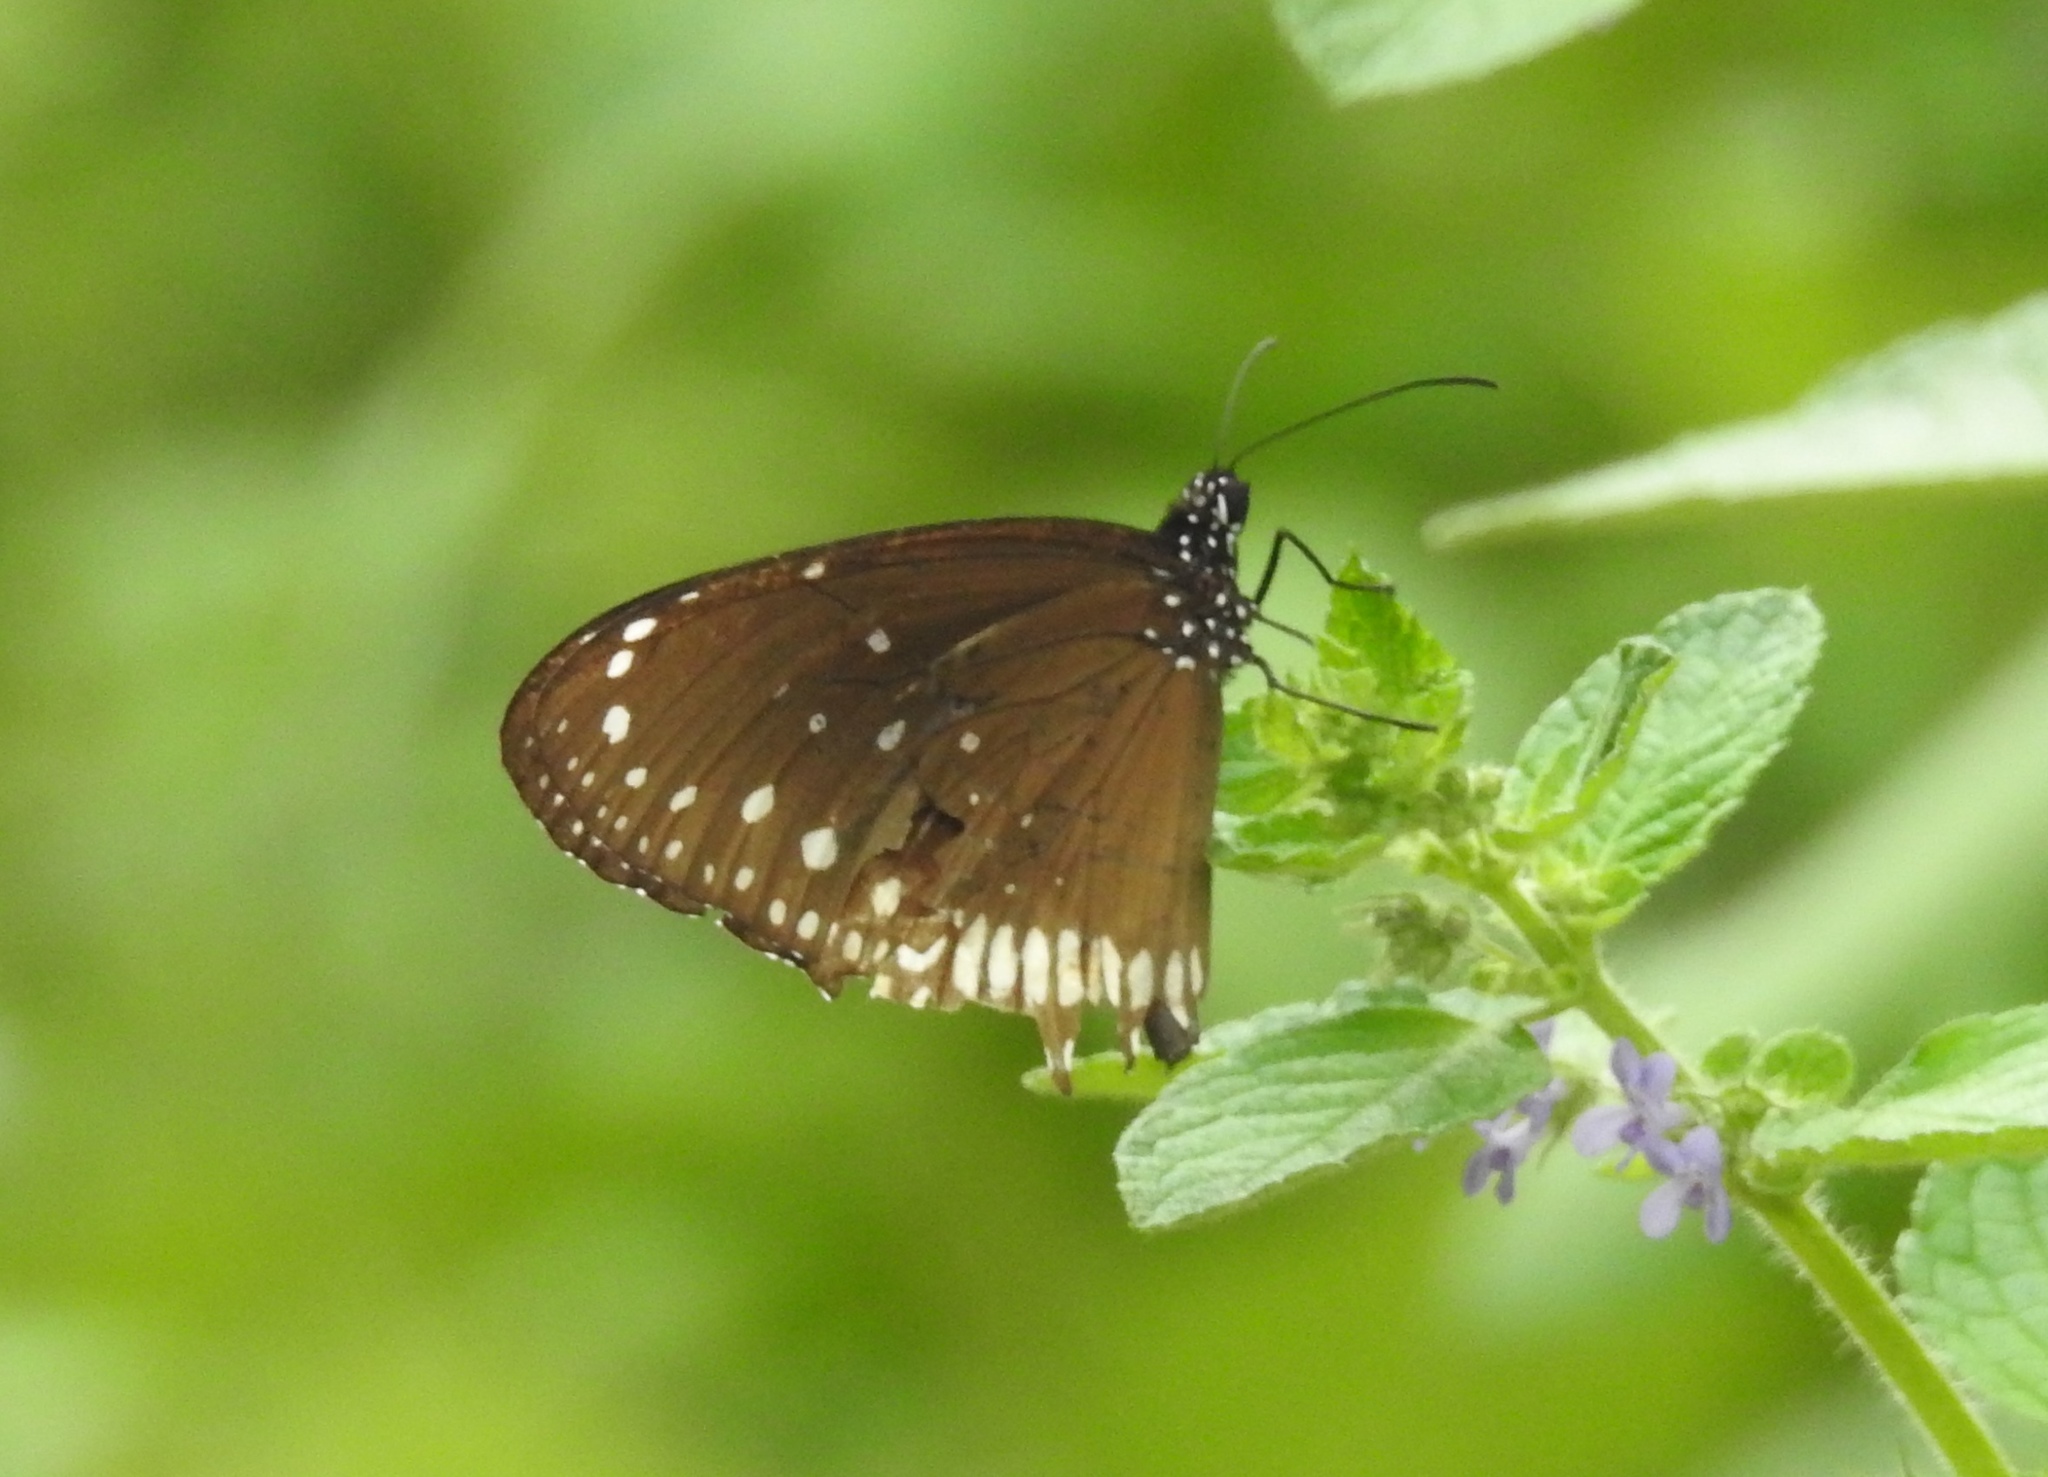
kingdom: Animalia
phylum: Arthropoda
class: Insecta
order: Lepidoptera
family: Nymphalidae
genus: Euploea
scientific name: Euploea core
